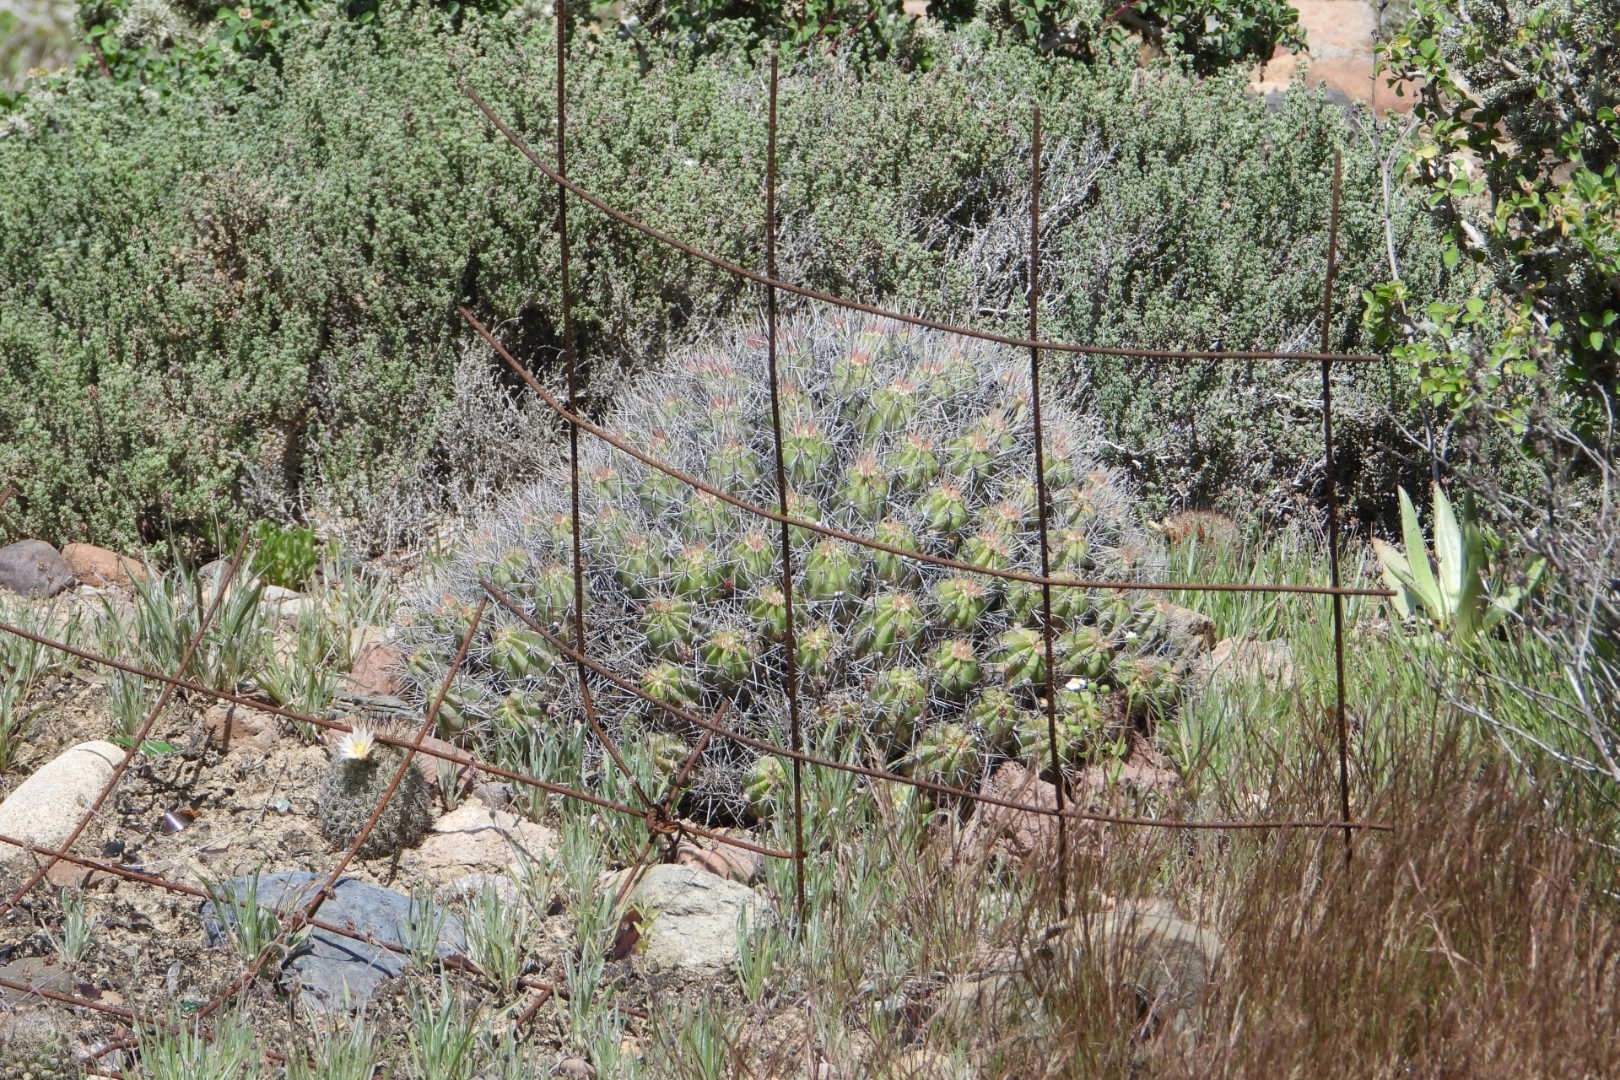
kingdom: Plantae
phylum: Tracheophyta
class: Magnoliopsida
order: Caryophyllales
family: Cactaceae
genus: Echinocereus
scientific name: Echinocereus maritimus
